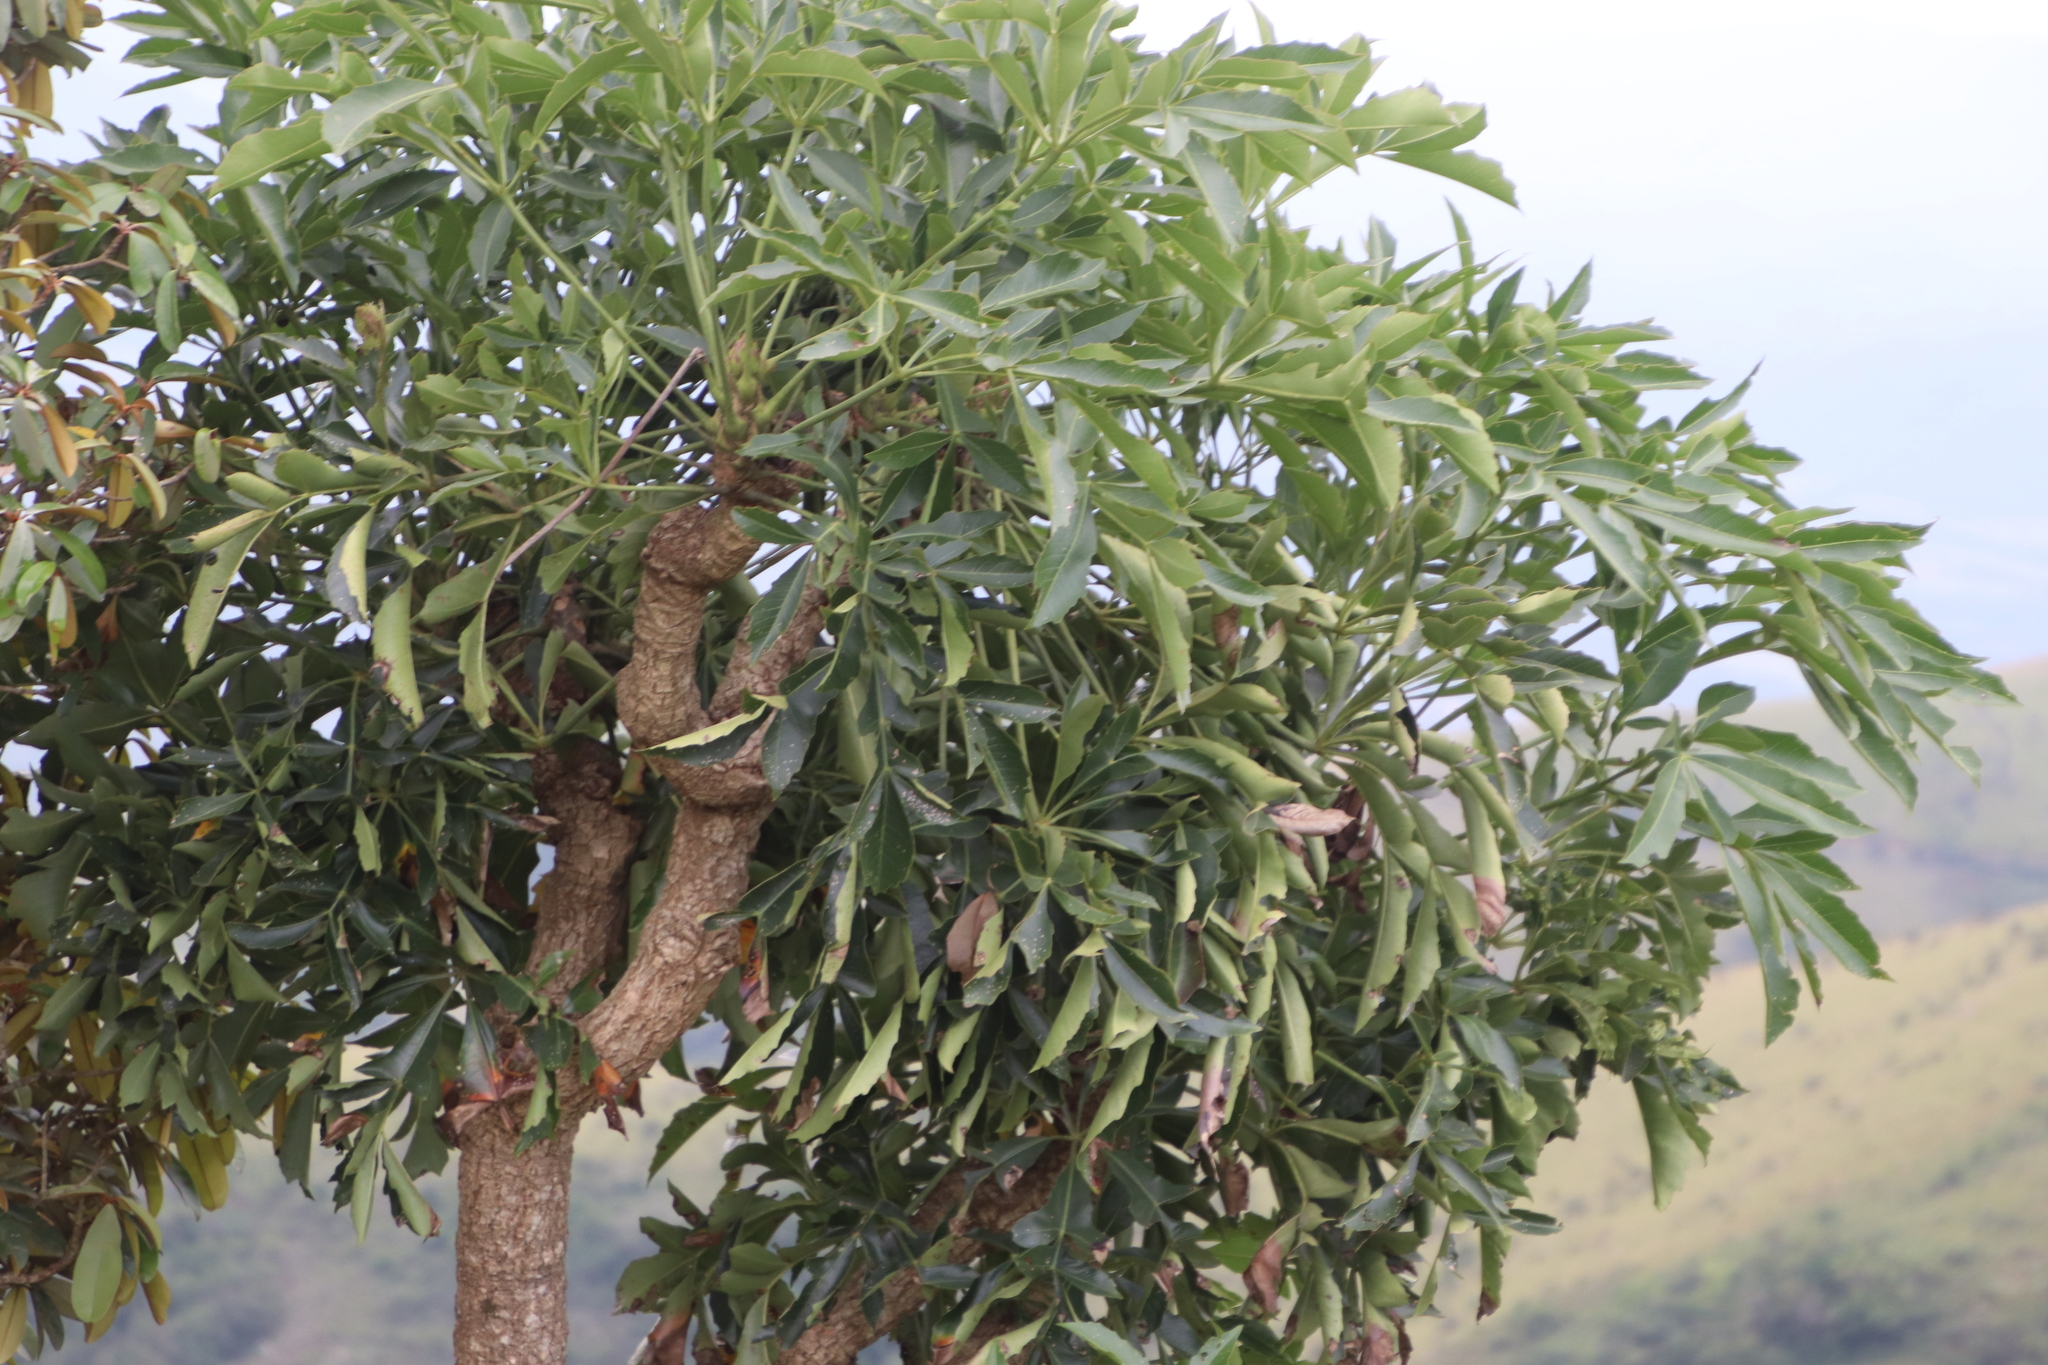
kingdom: Plantae
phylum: Tracheophyta
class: Magnoliopsida
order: Apiales
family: Araliaceae
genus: Cussonia
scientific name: Cussonia spicata
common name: Common cabbagetree
